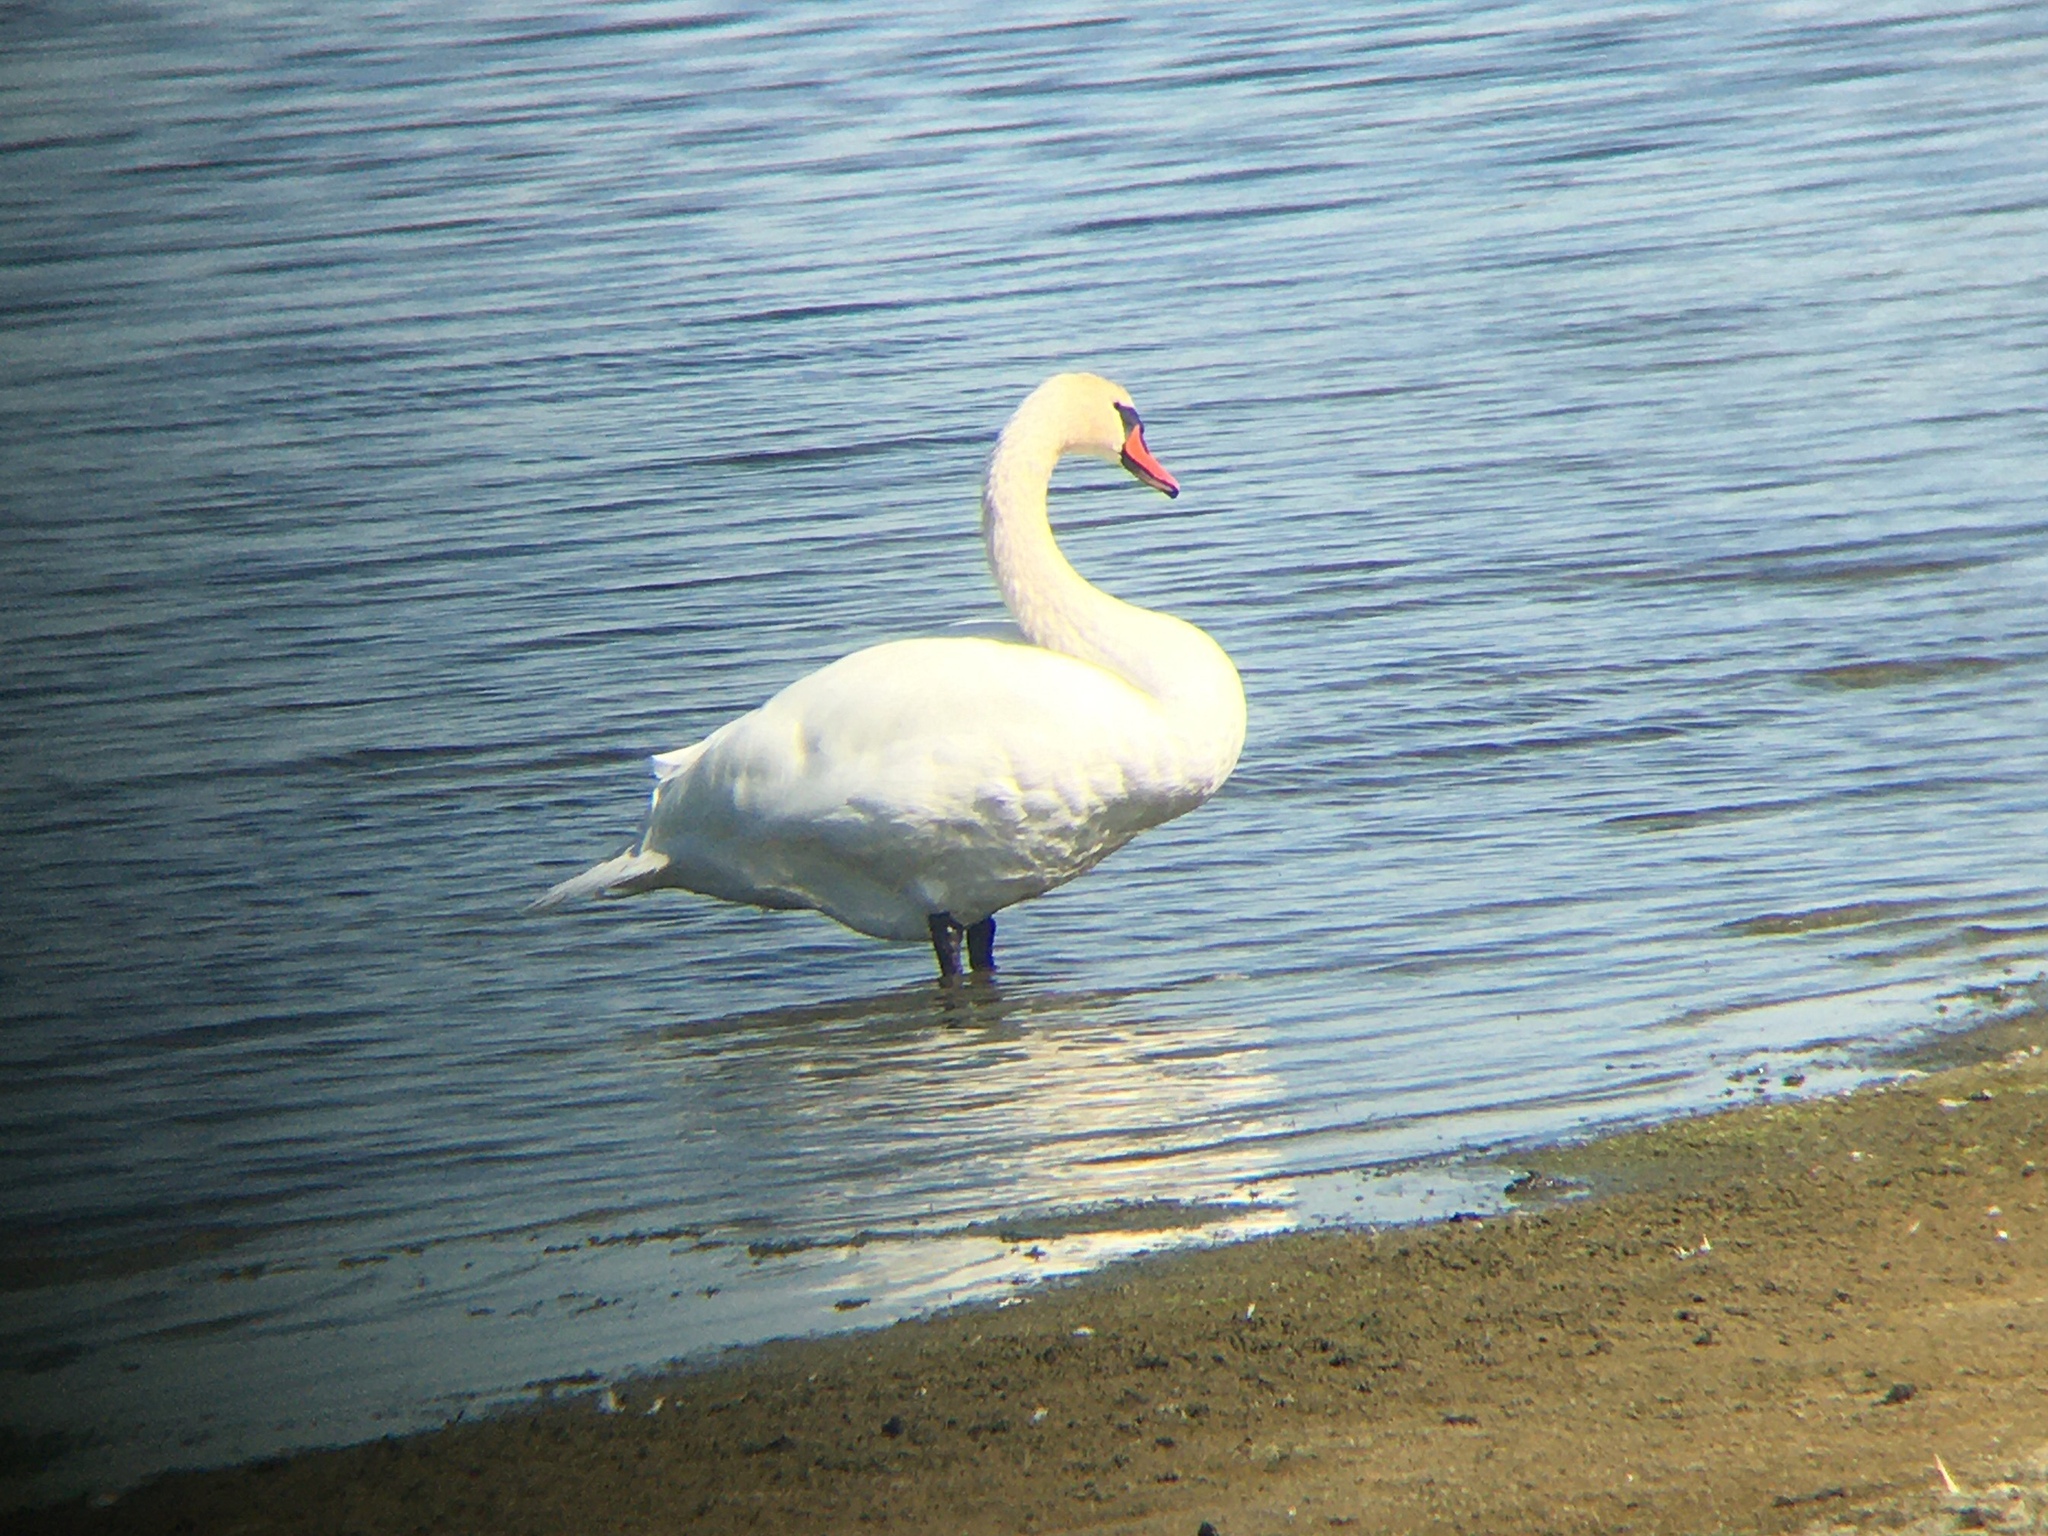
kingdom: Animalia
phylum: Chordata
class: Aves
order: Anseriformes
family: Anatidae
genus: Cygnus
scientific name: Cygnus olor
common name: Mute swan
